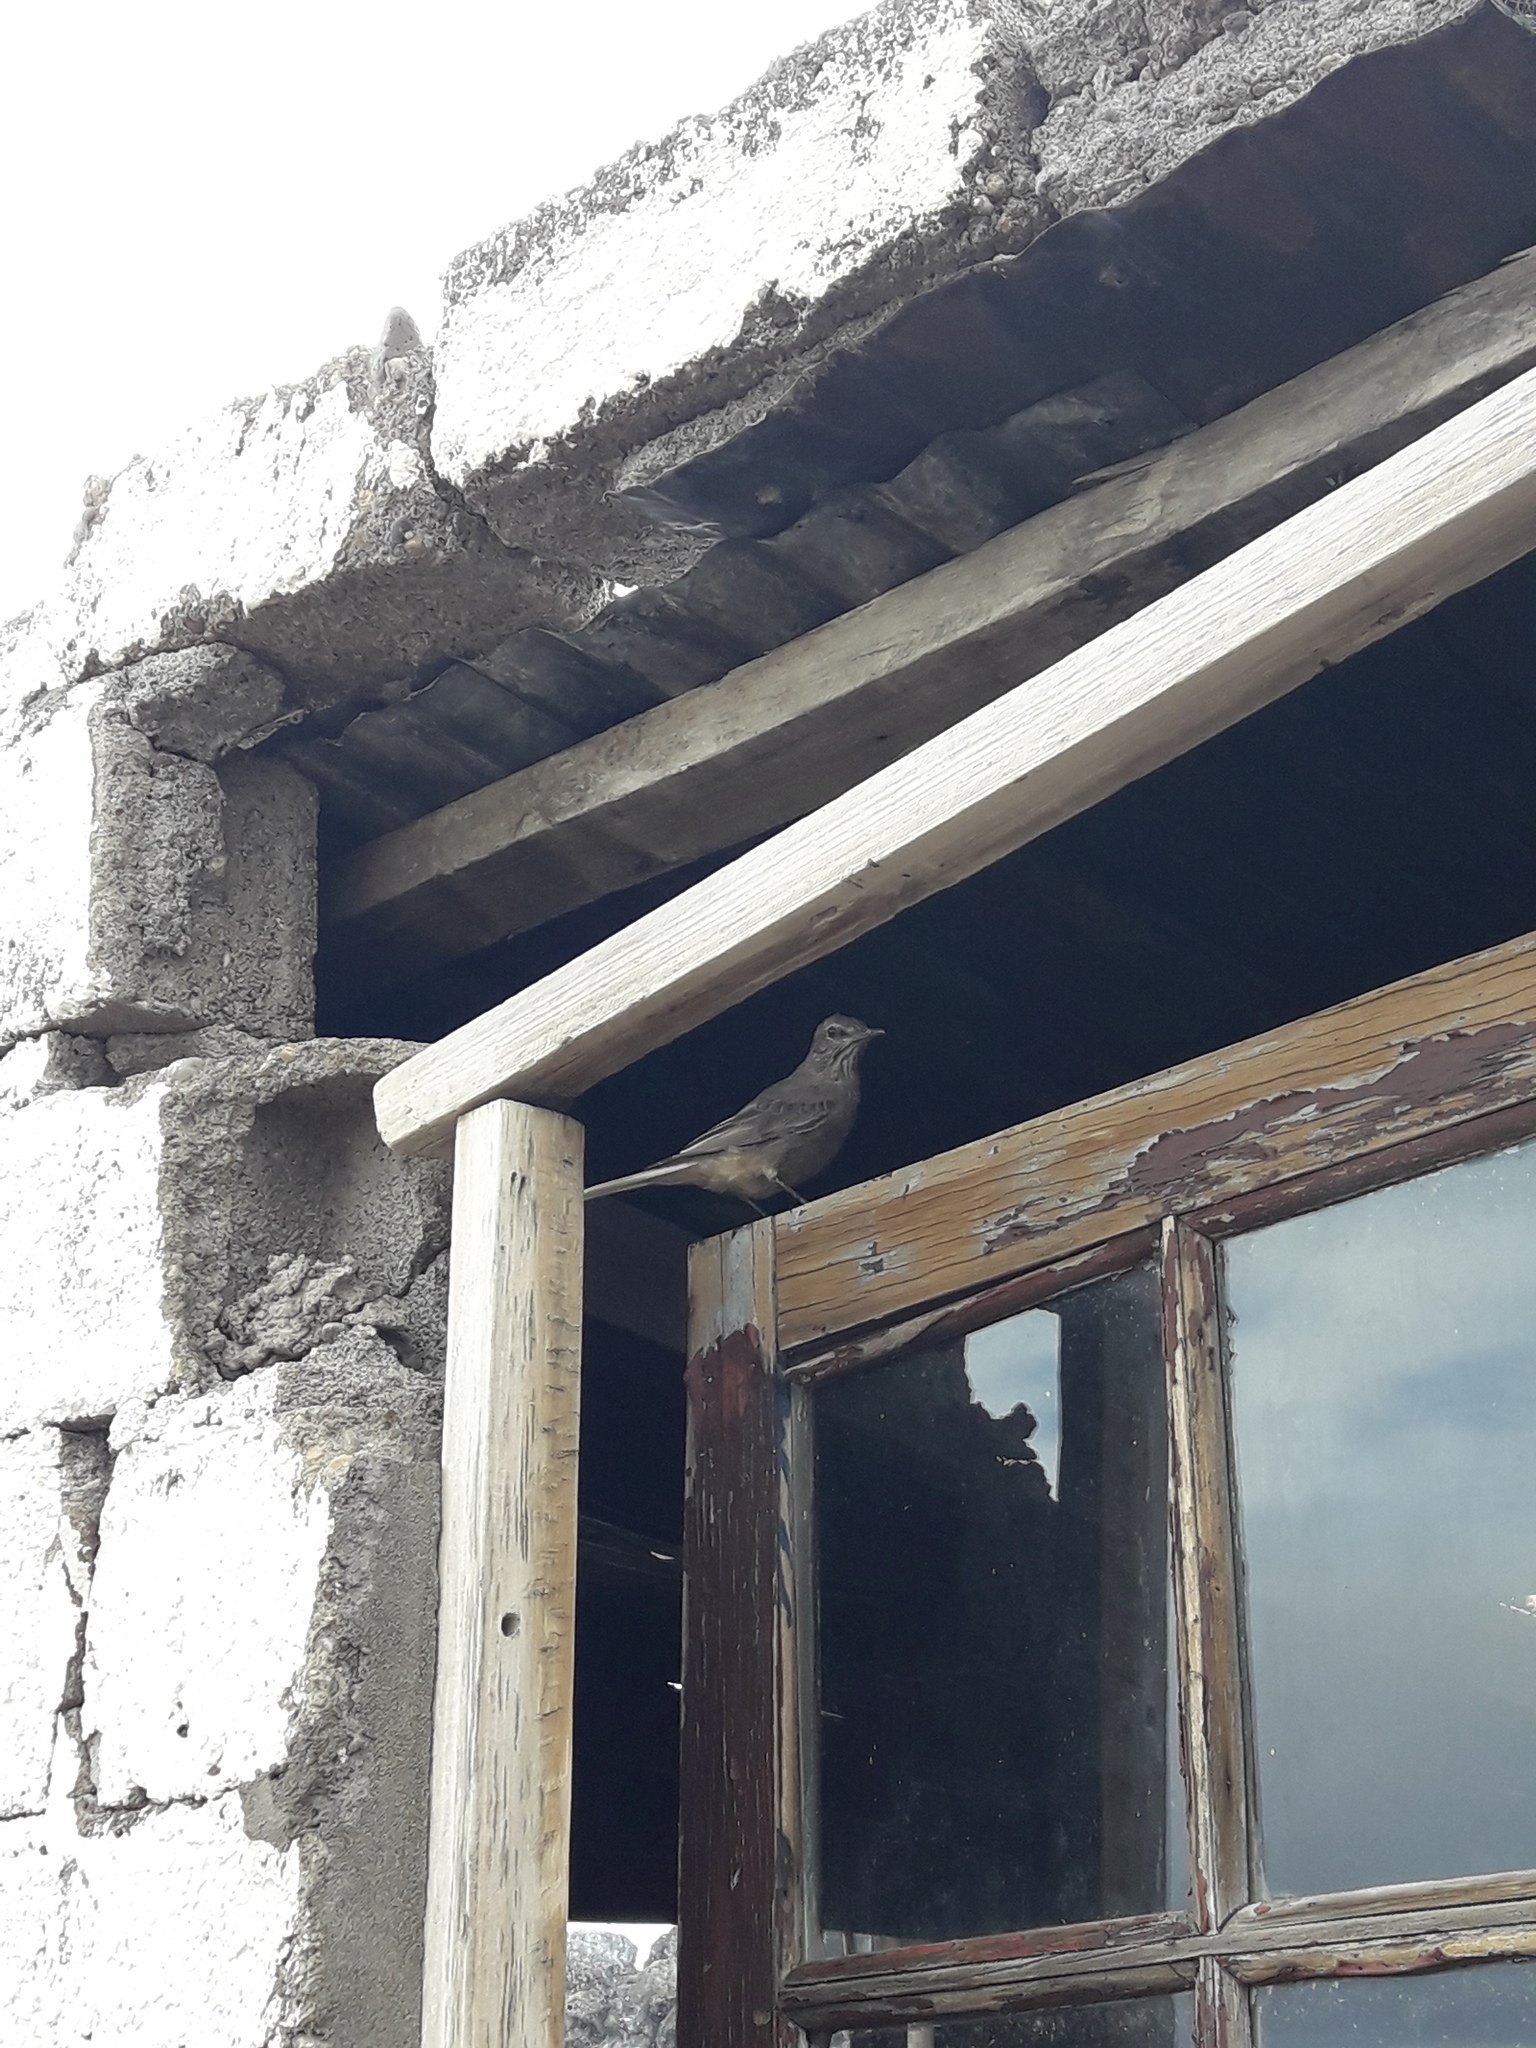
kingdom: Animalia
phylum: Chordata
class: Aves
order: Passeriformes
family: Tyrannidae
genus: Agriornis
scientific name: Agriornis montanus
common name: Black-billed shrike-tyrant
